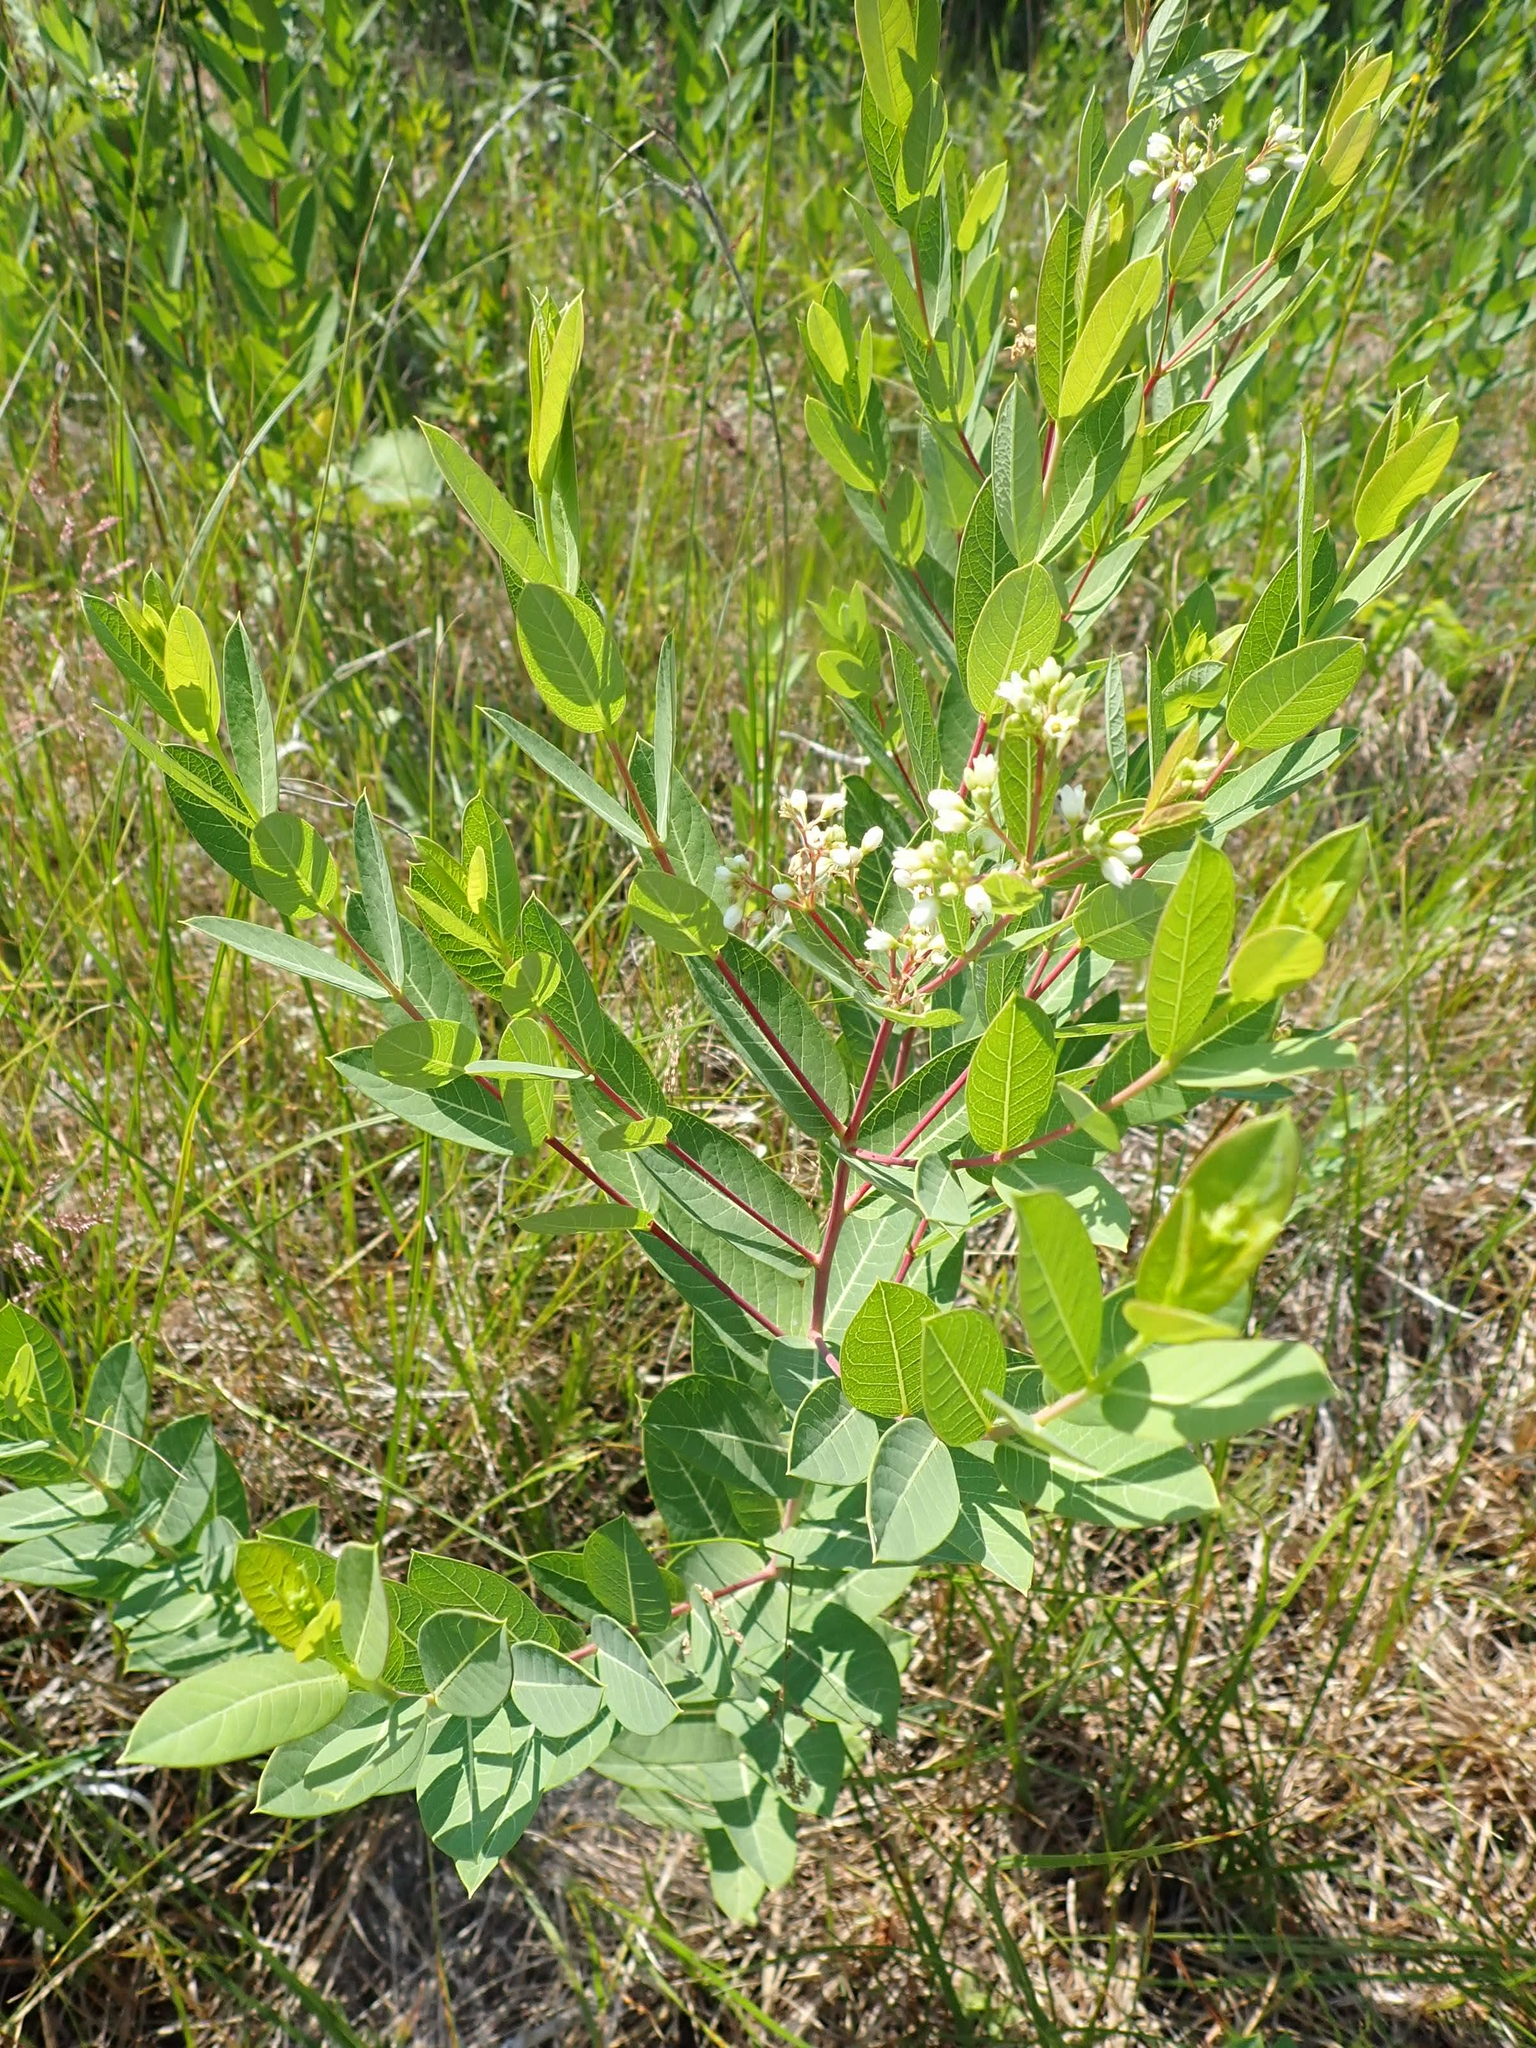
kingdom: Plantae
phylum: Tracheophyta
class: Magnoliopsida
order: Gentianales
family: Apocynaceae
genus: Apocynum
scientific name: Apocynum cannabinum
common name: Hemp dogbane
